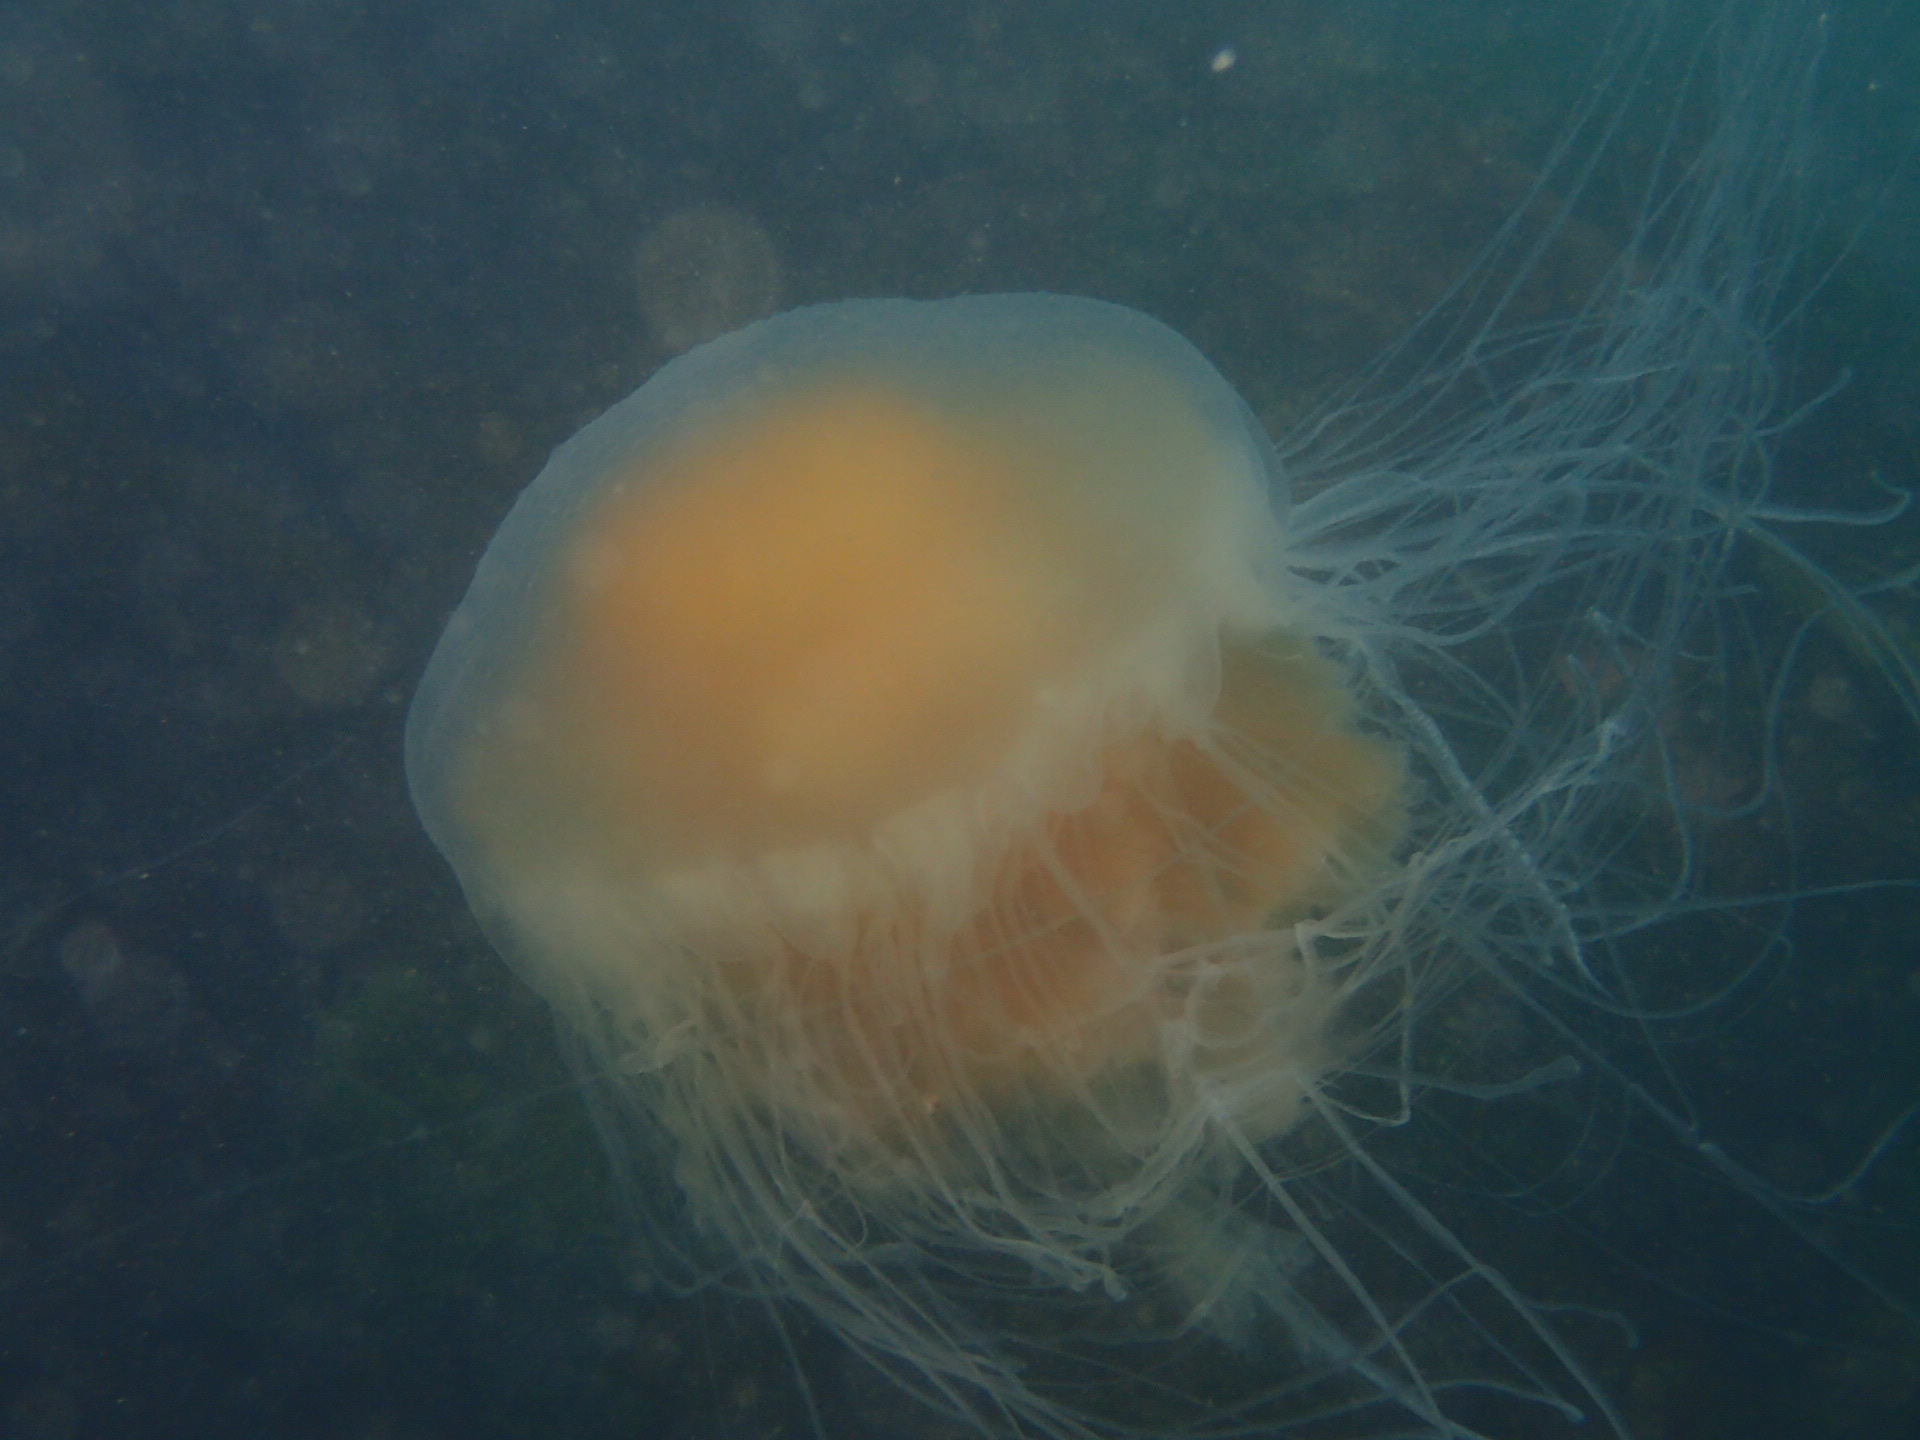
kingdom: Animalia
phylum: Cnidaria
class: Scyphozoa
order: Semaeostomeae
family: Phacellophoridae
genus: Phacellophora
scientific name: Phacellophora camtschatica
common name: Fried-egg jellyfish
